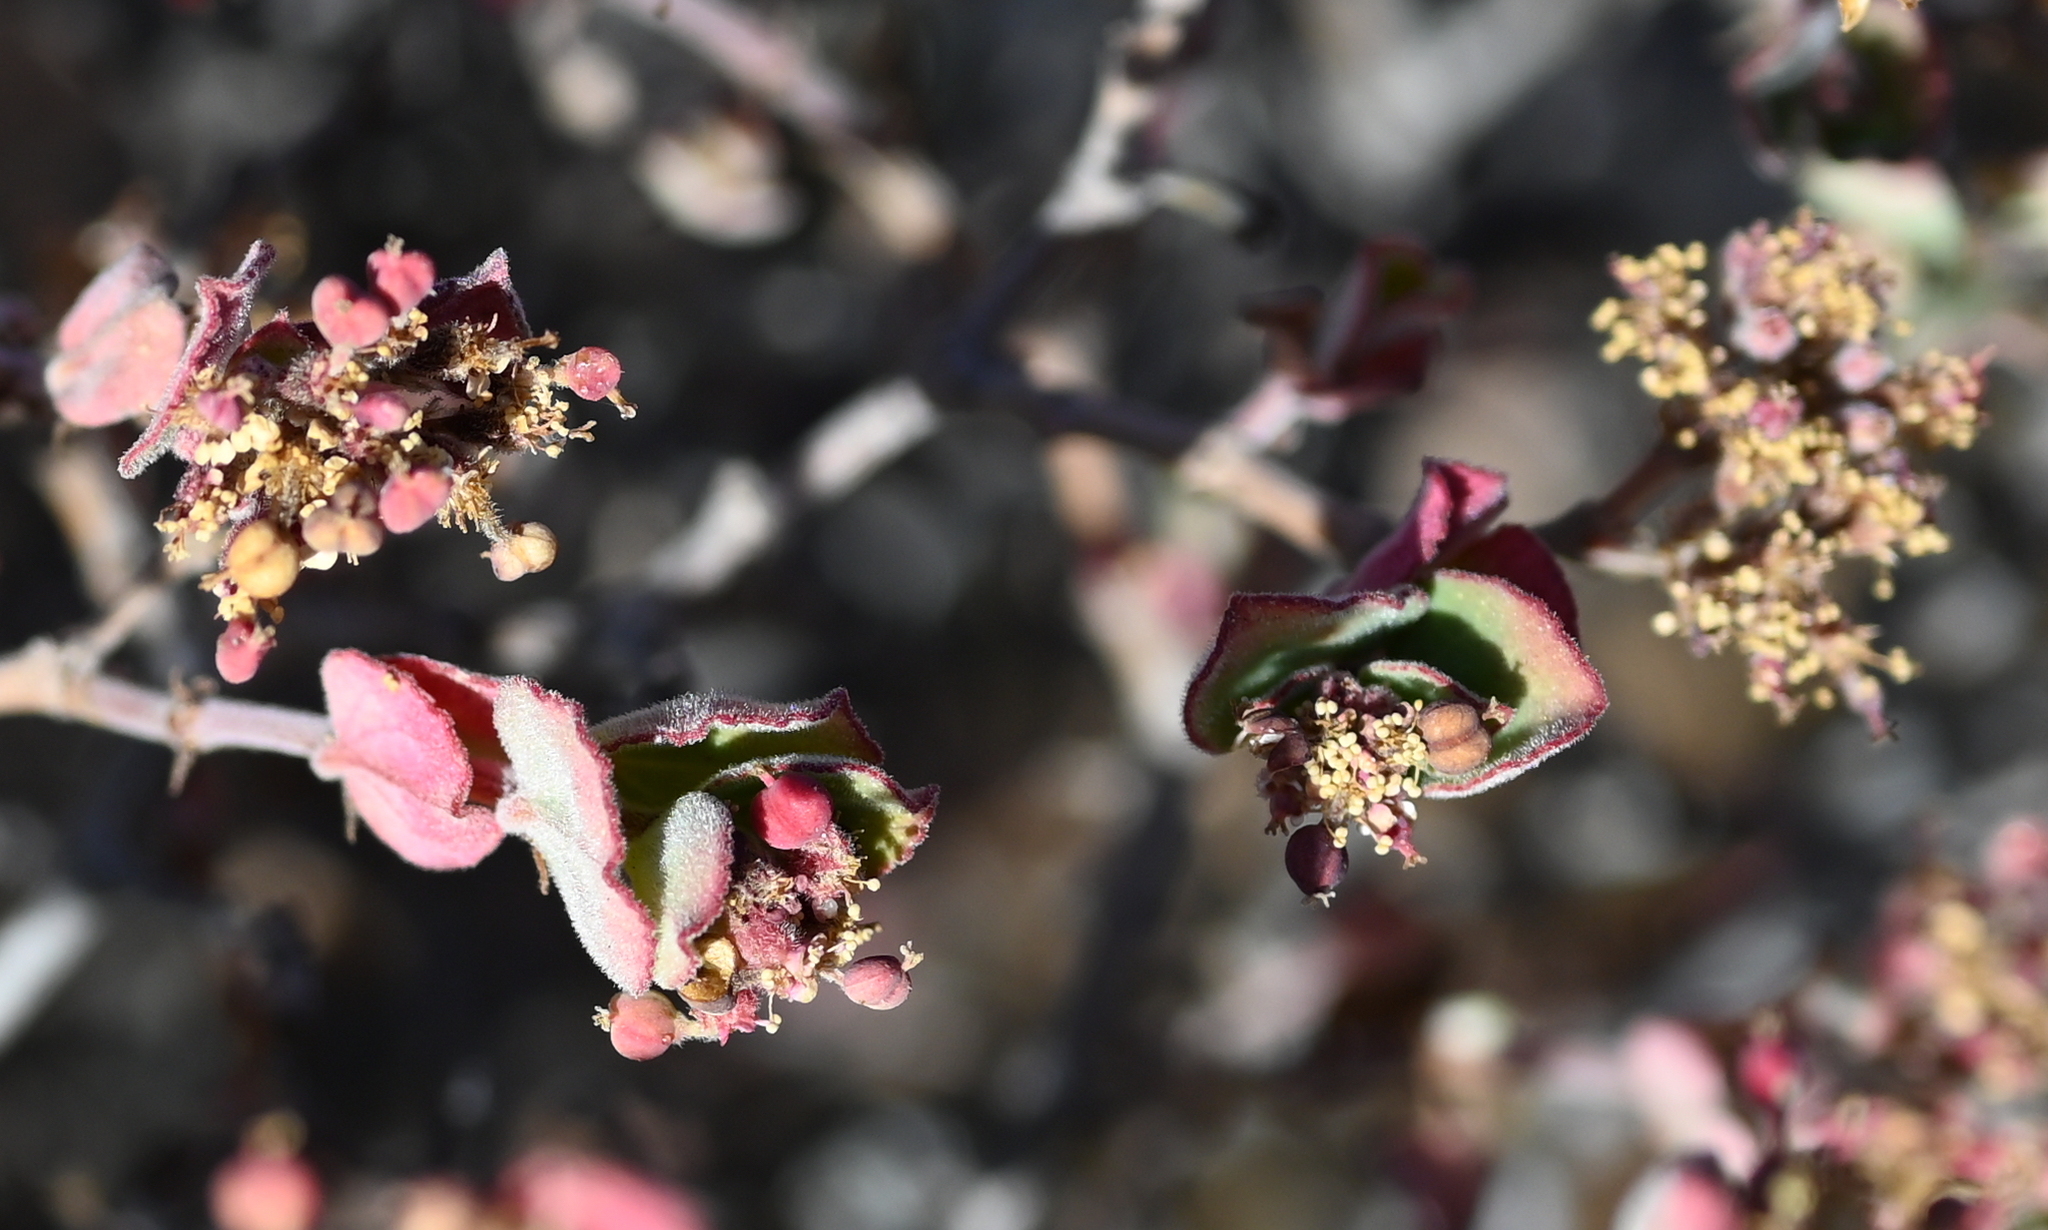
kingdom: Plantae
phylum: Tracheophyta
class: Magnoliopsida
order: Malpighiales
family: Euphorbiaceae
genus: Euphorbia
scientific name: Euphorbia tomentulosa
